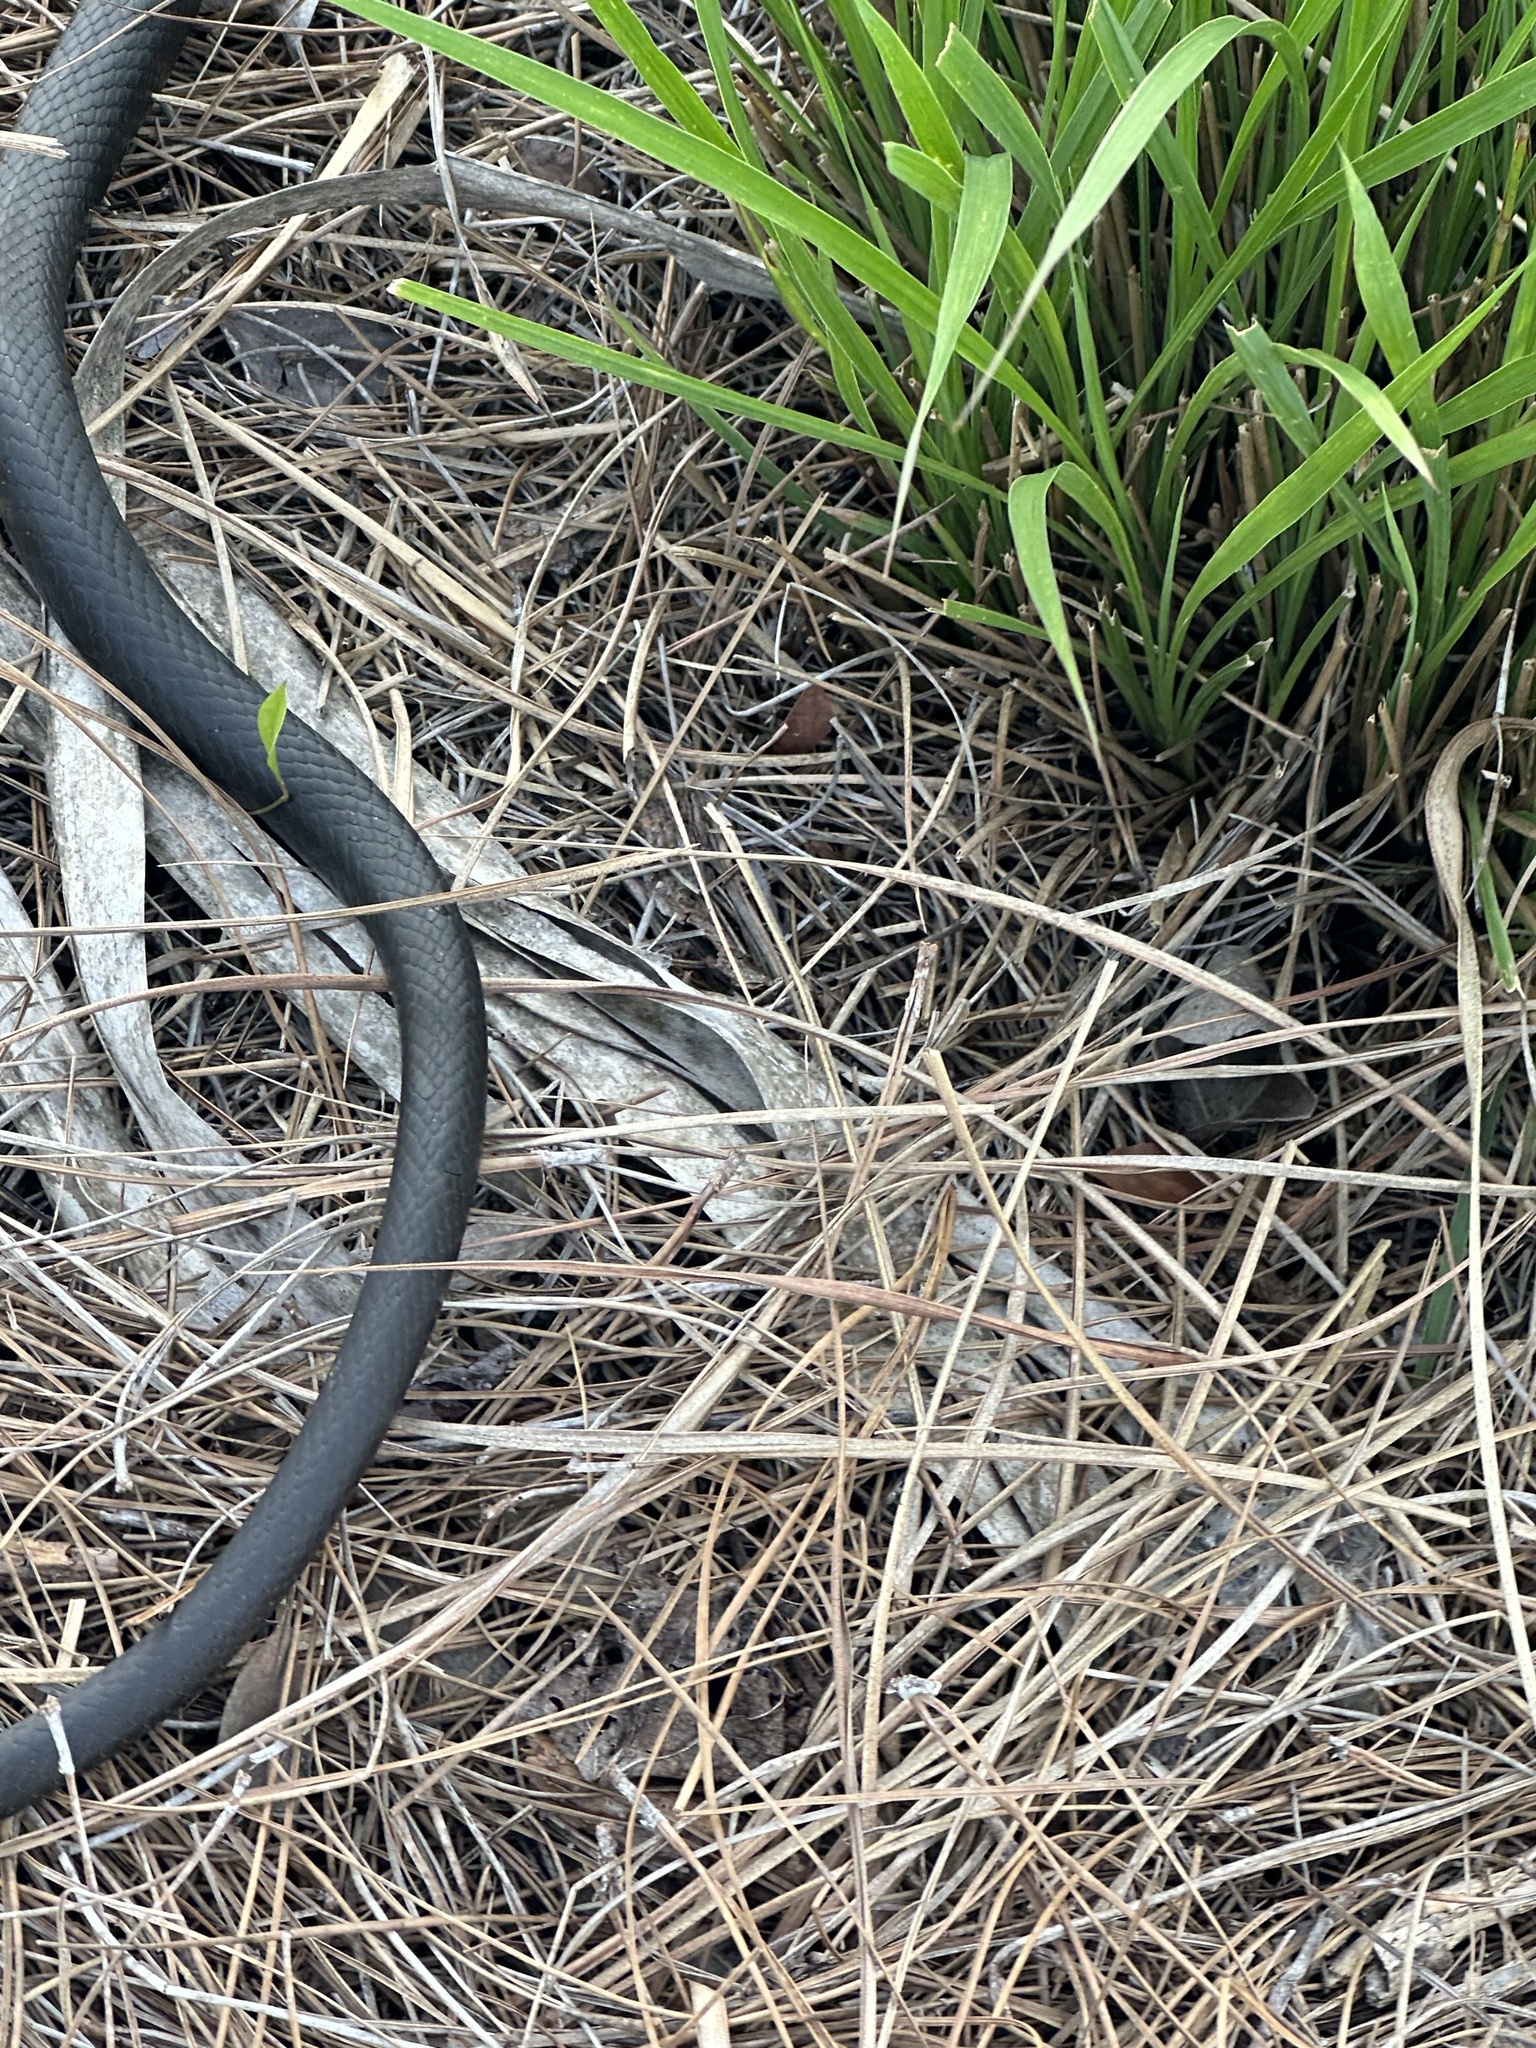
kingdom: Animalia
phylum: Chordata
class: Squamata
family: Colubridae
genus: Coluber
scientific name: Coluber constrictor
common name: Eastern racer
